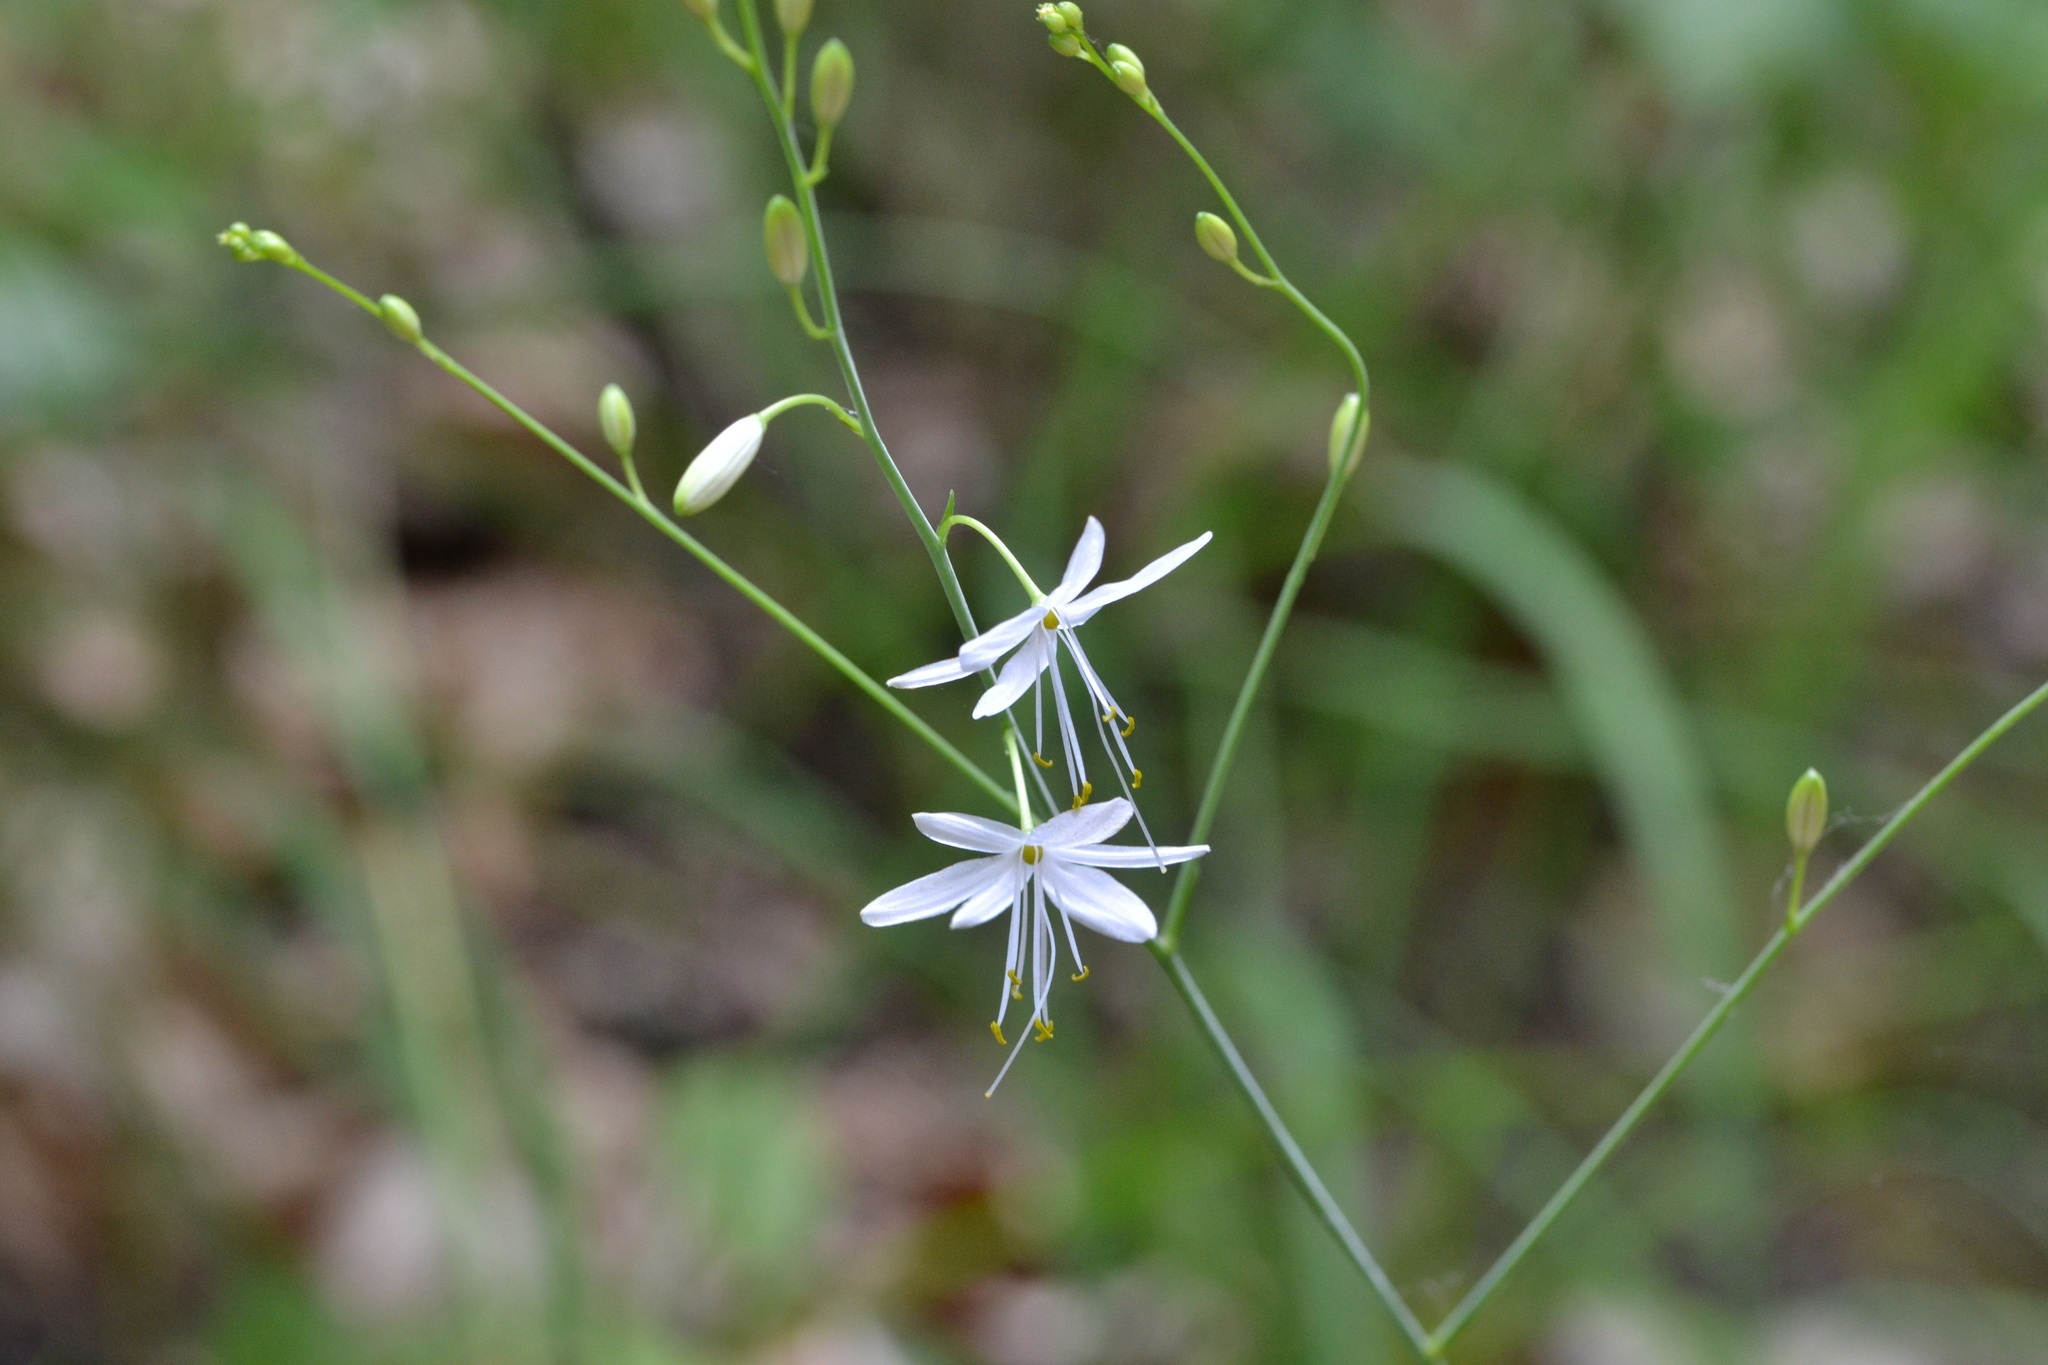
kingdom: Plantae
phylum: Tracheophyta
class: Liliopsida
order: Asparagales
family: Asparagaceae
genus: Anthericum
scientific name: Anthericum ramosum
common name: Branched st. bernard's-lily
